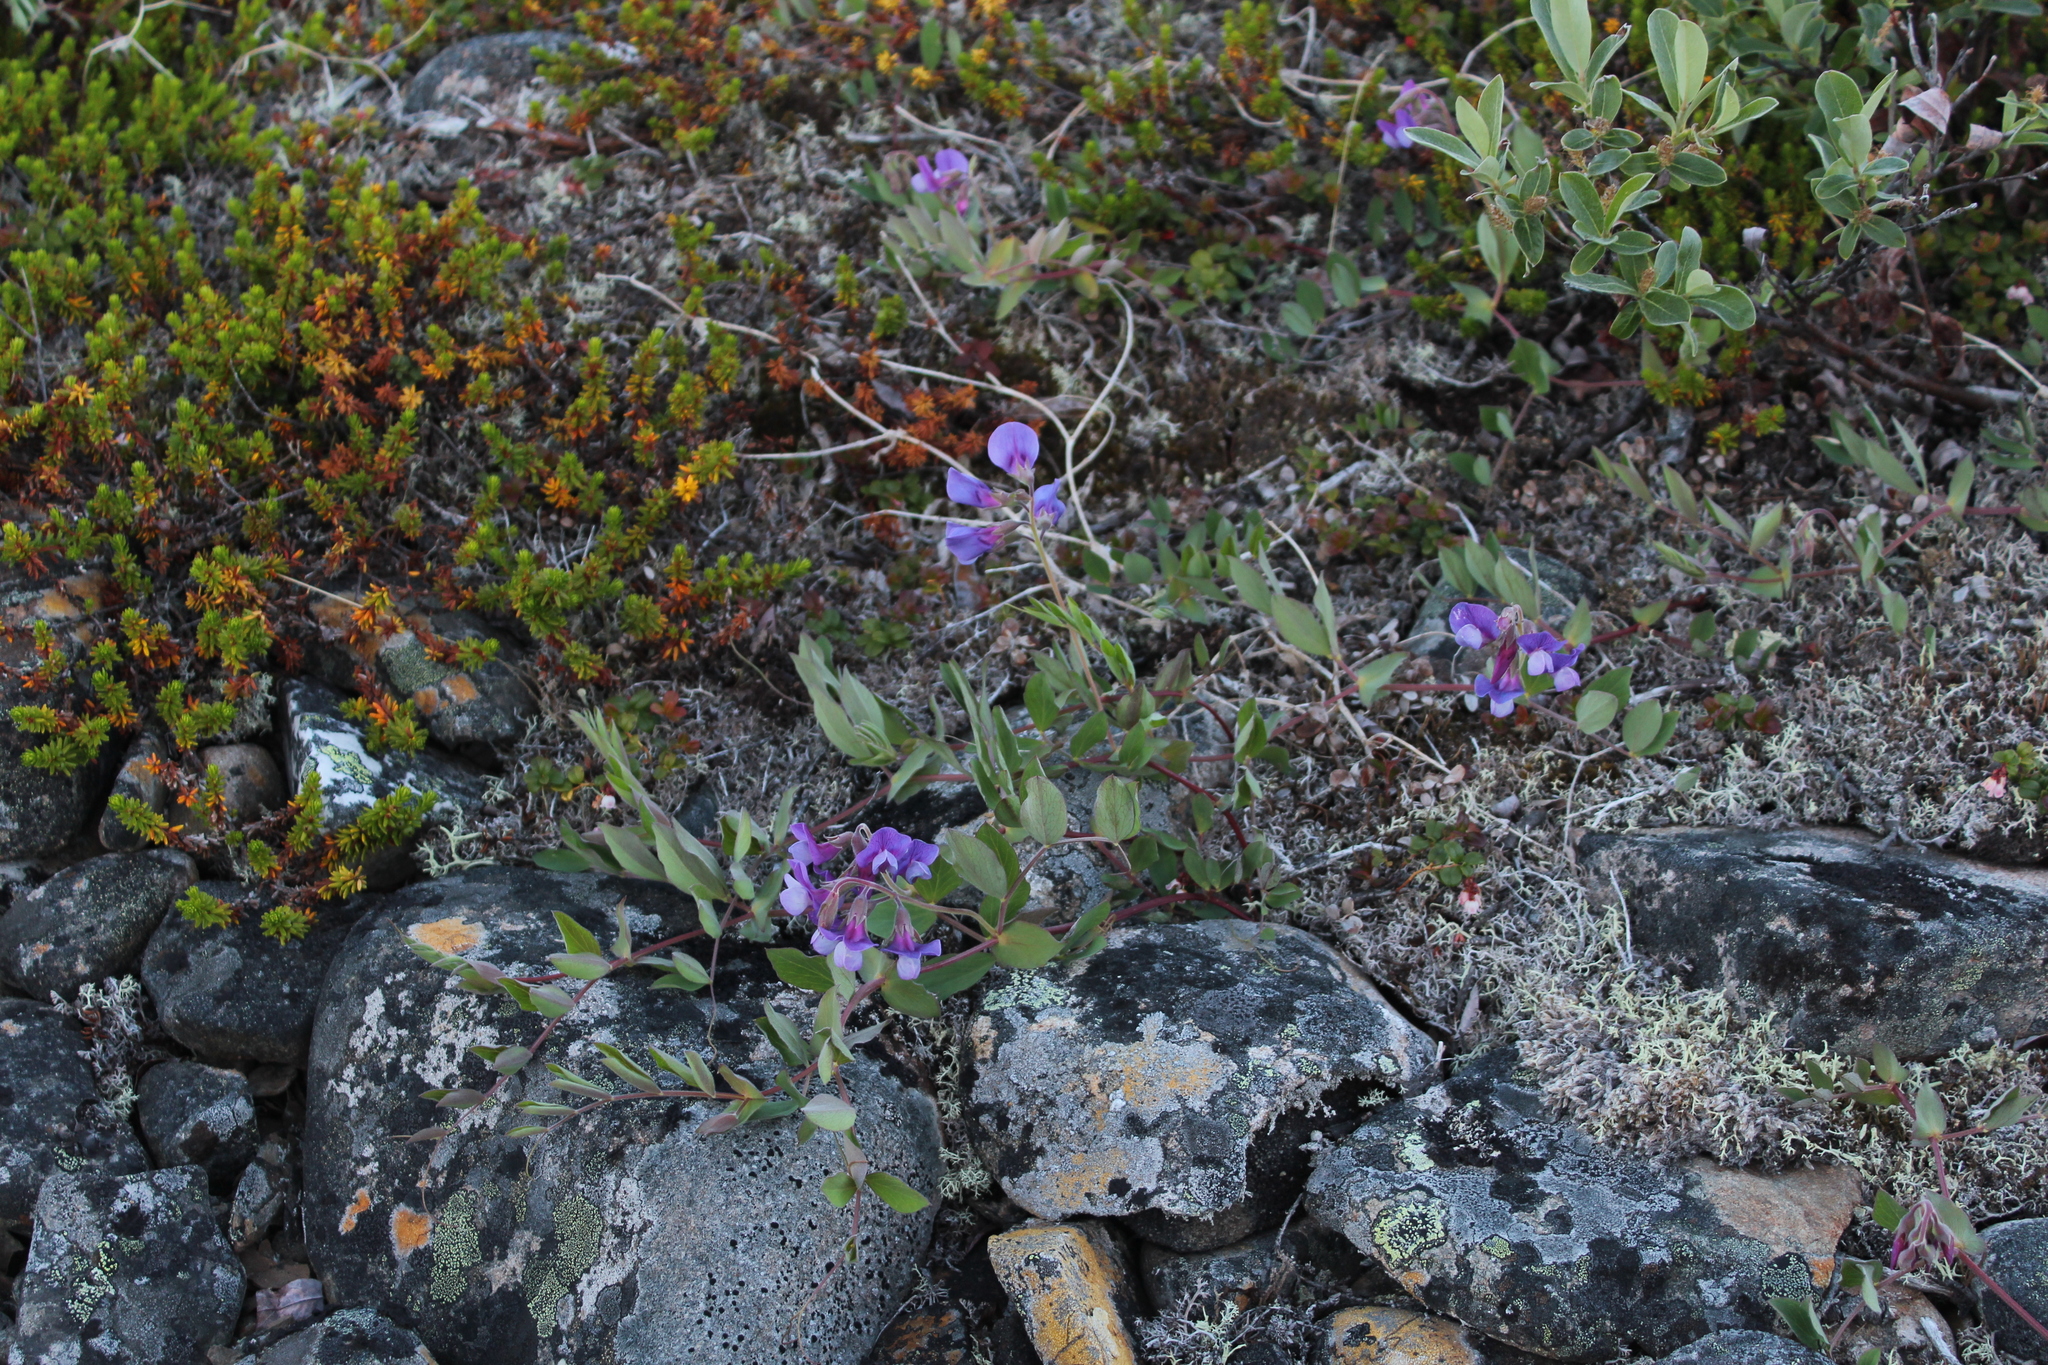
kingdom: Plantae
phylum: Tracheophyta
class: Magnoliopsida
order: Fabales
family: Fabaceae
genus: Lathyrus
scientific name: Lathyrus japonicus
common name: Sea pea
